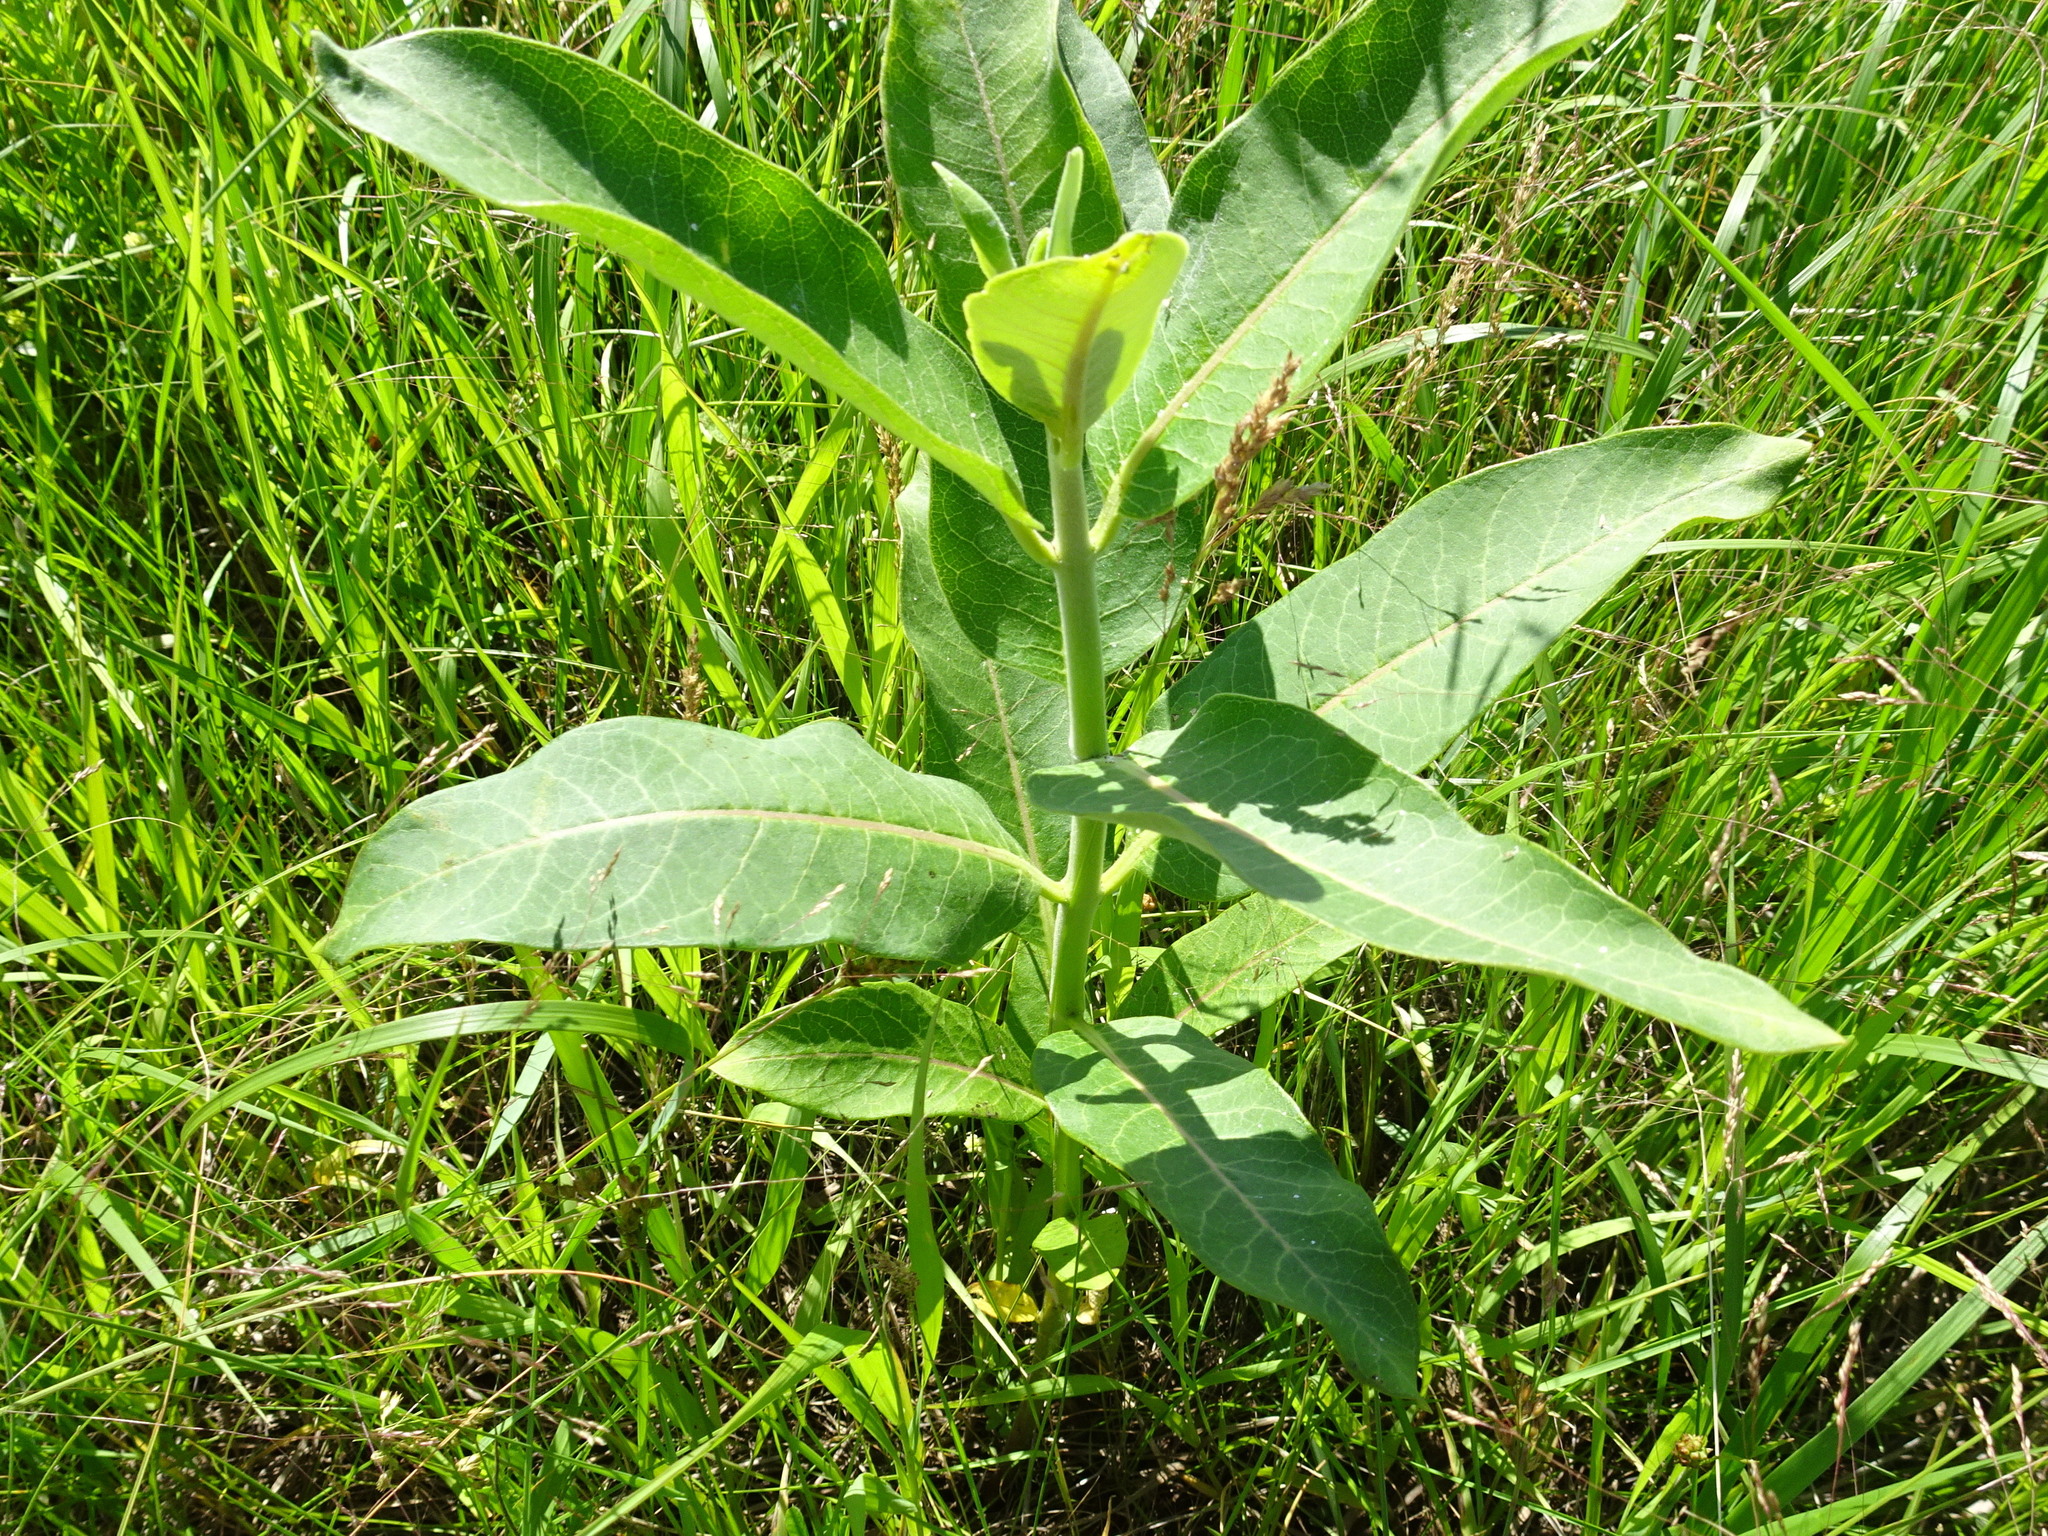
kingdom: Plantae
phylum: Tracheophyta
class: Magnoliopsida
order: Gentianales
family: Apocynaceae
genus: Asclepias
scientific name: Asclepias syriaca
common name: Common milkweed
